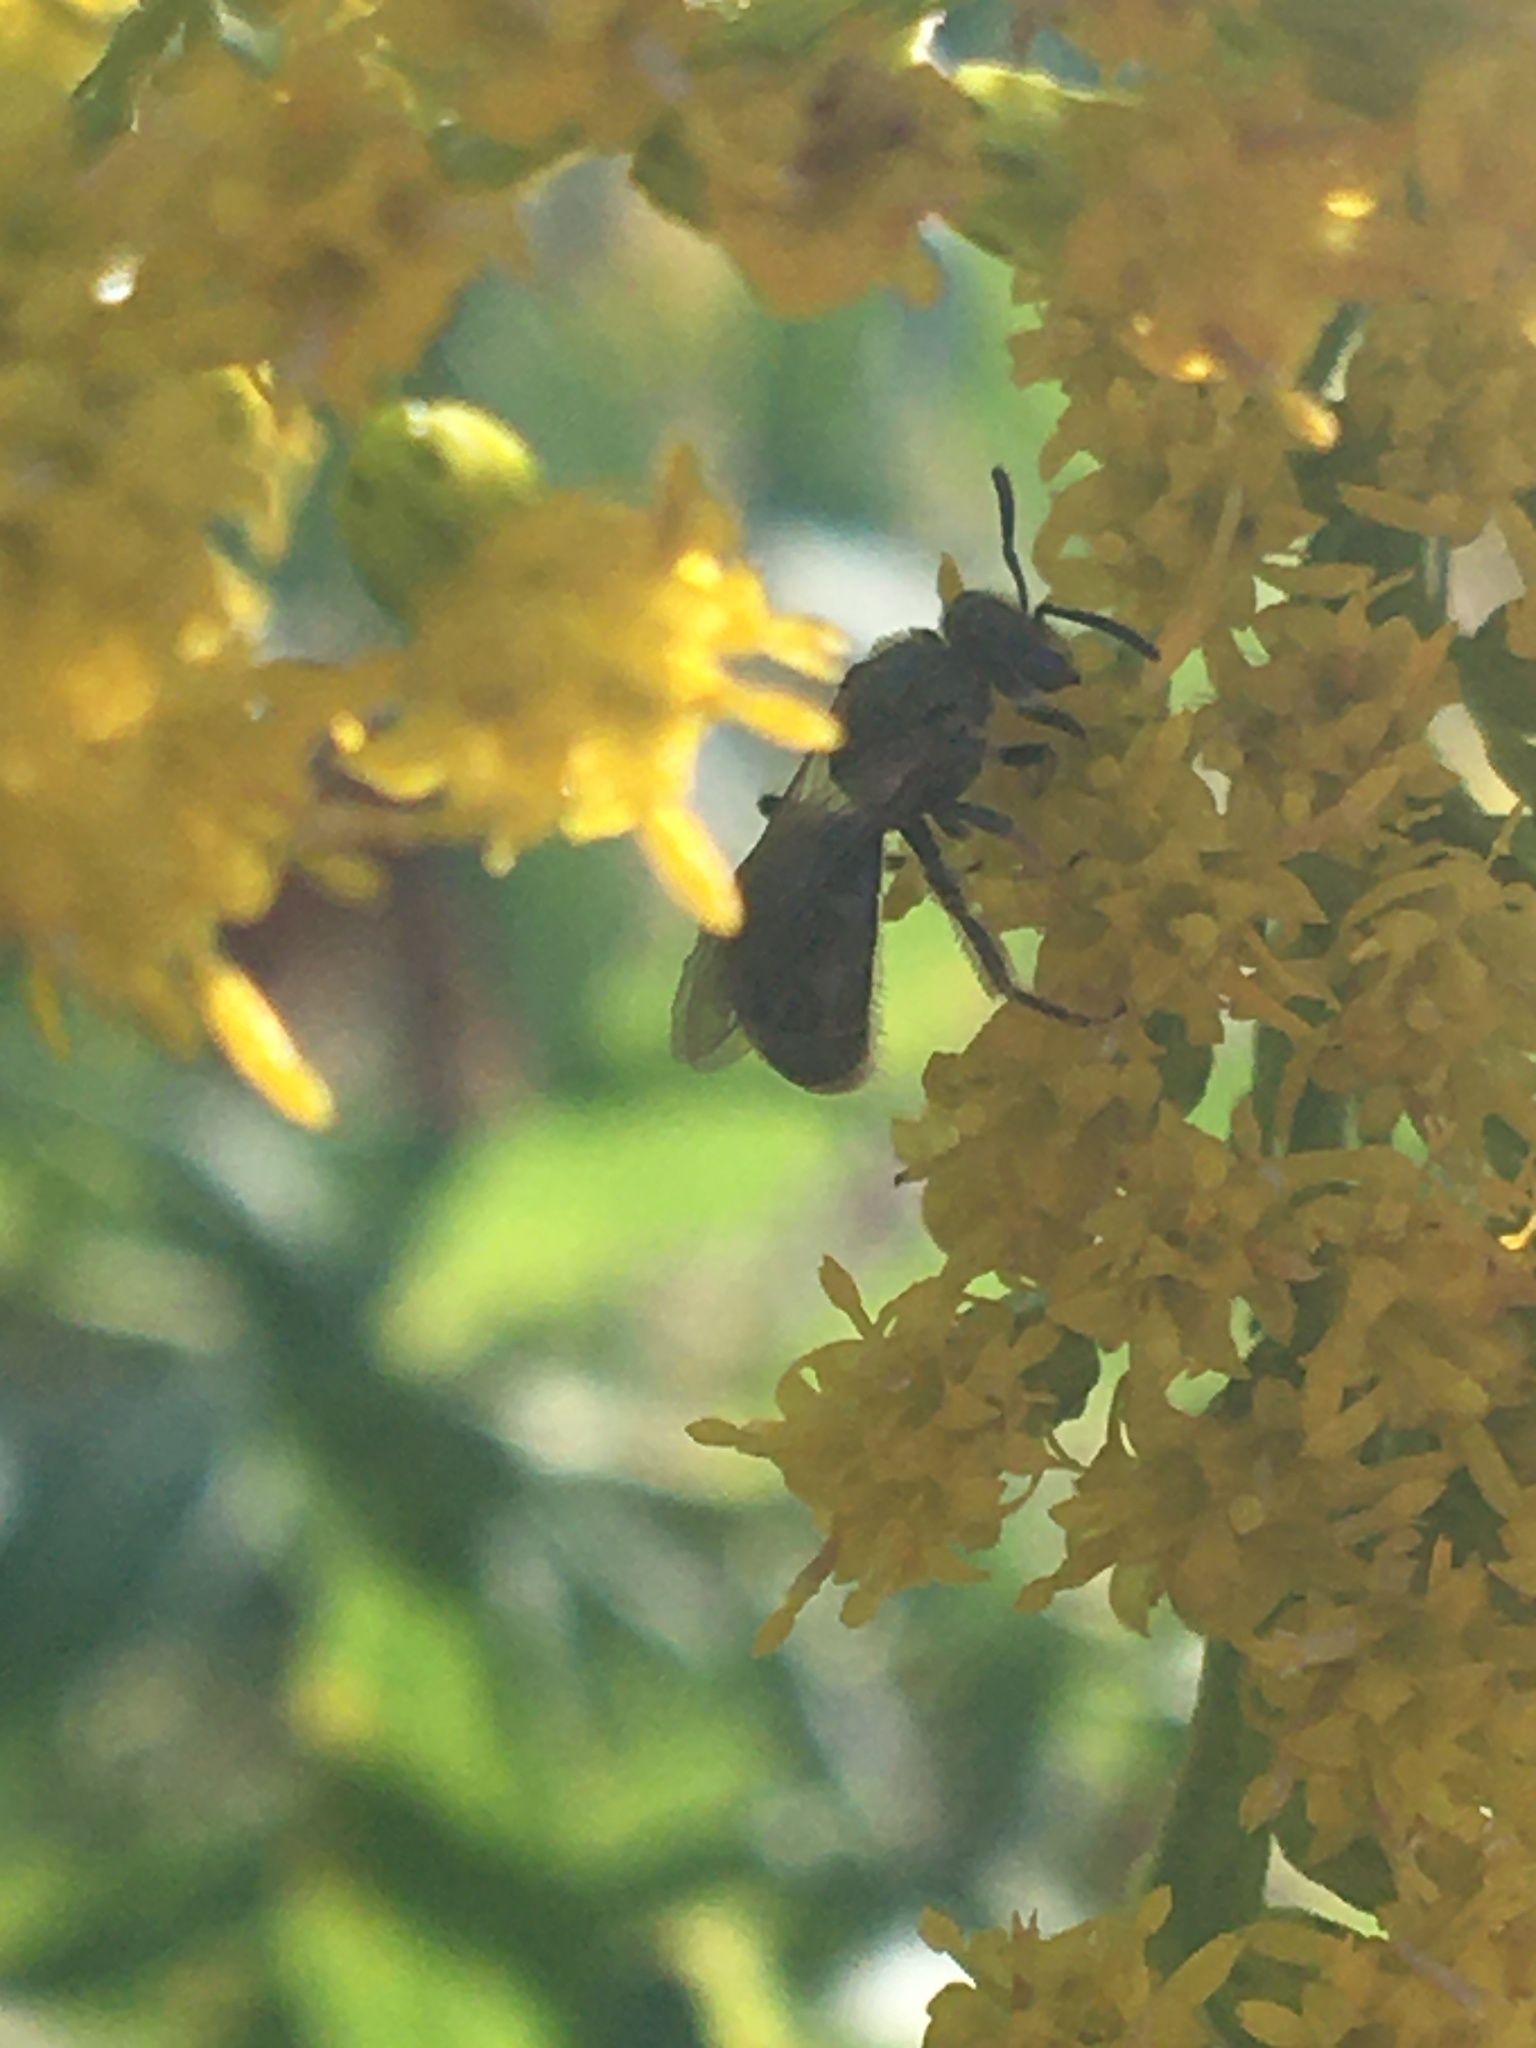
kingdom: Animalia
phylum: Arthropoda
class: Insecta
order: Hymenoptera
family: Halictidae
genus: Dialictus
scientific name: Dialictus
